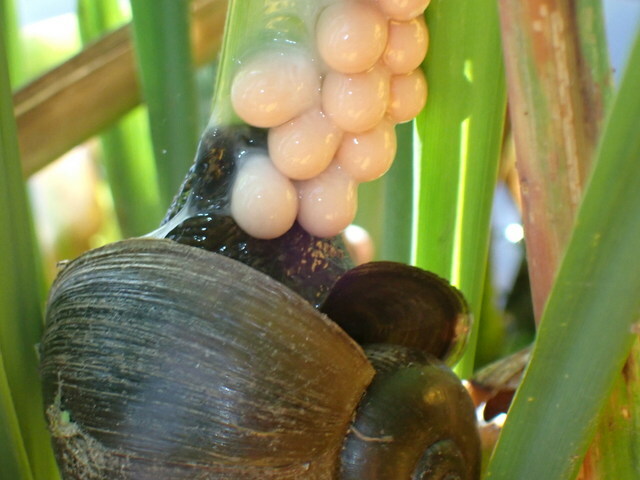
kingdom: Animalia
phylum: Mollusca
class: Gastropoda
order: Architaenioglossa
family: Ampullariidae
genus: Pomacea
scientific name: Pomacea paludosa
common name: Florida applesnail
